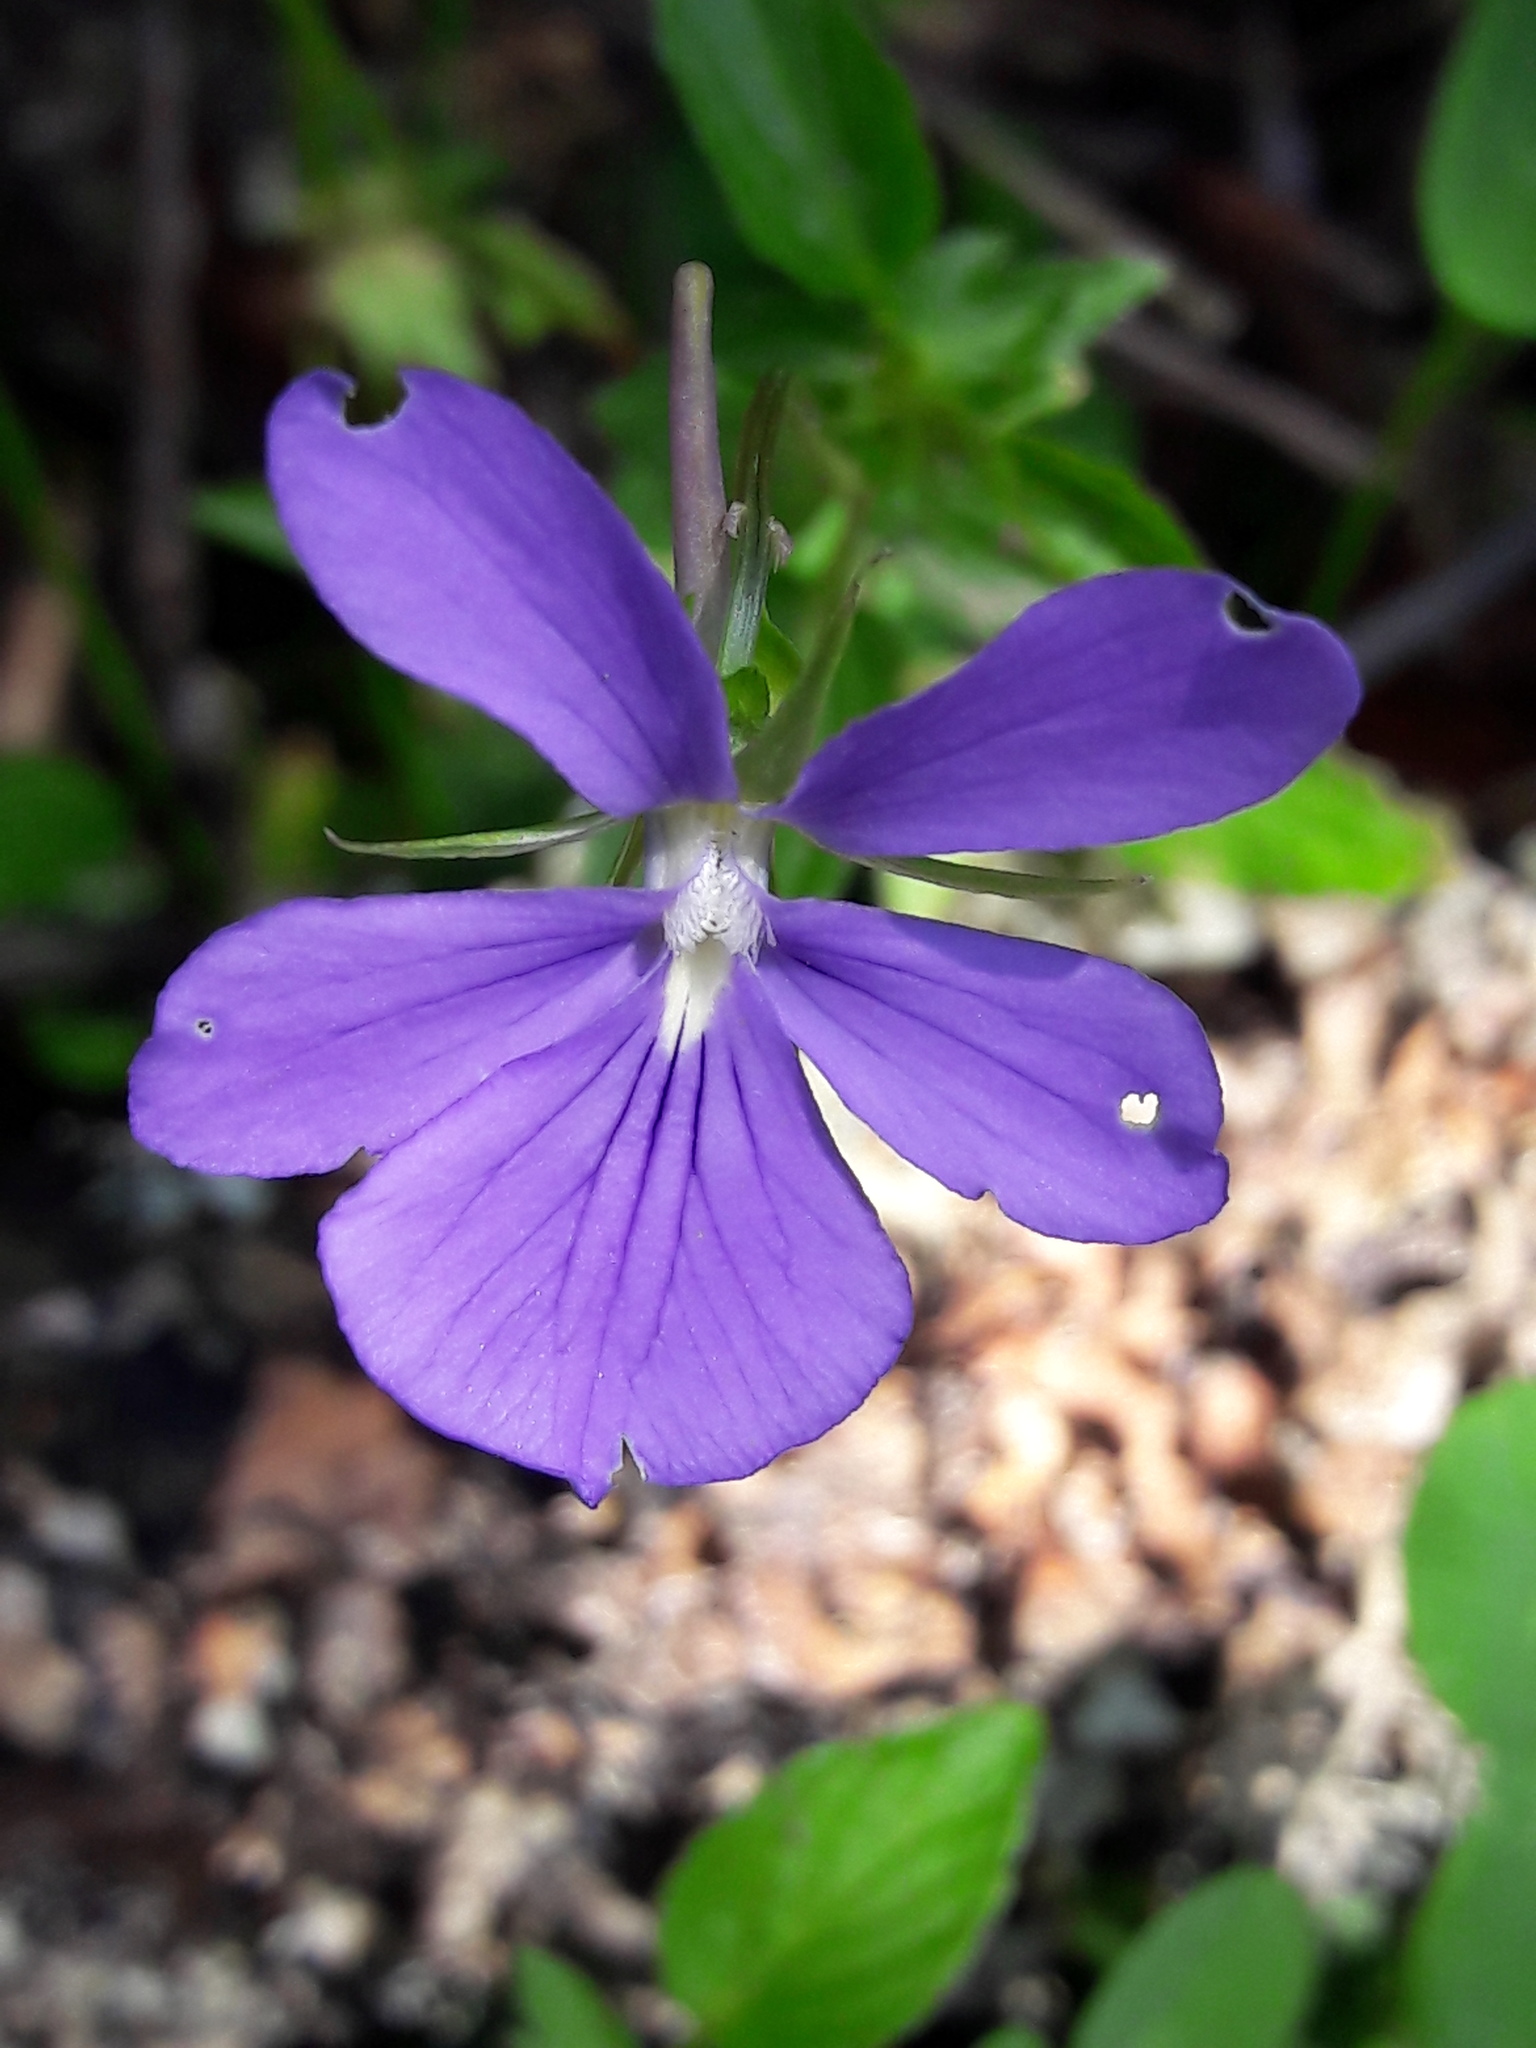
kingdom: Plantae
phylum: Tracheophyta
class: Magnoliopsida
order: Malpighiales
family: Violaceae
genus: Viola
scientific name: Viola cornuta
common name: Horned pansy
